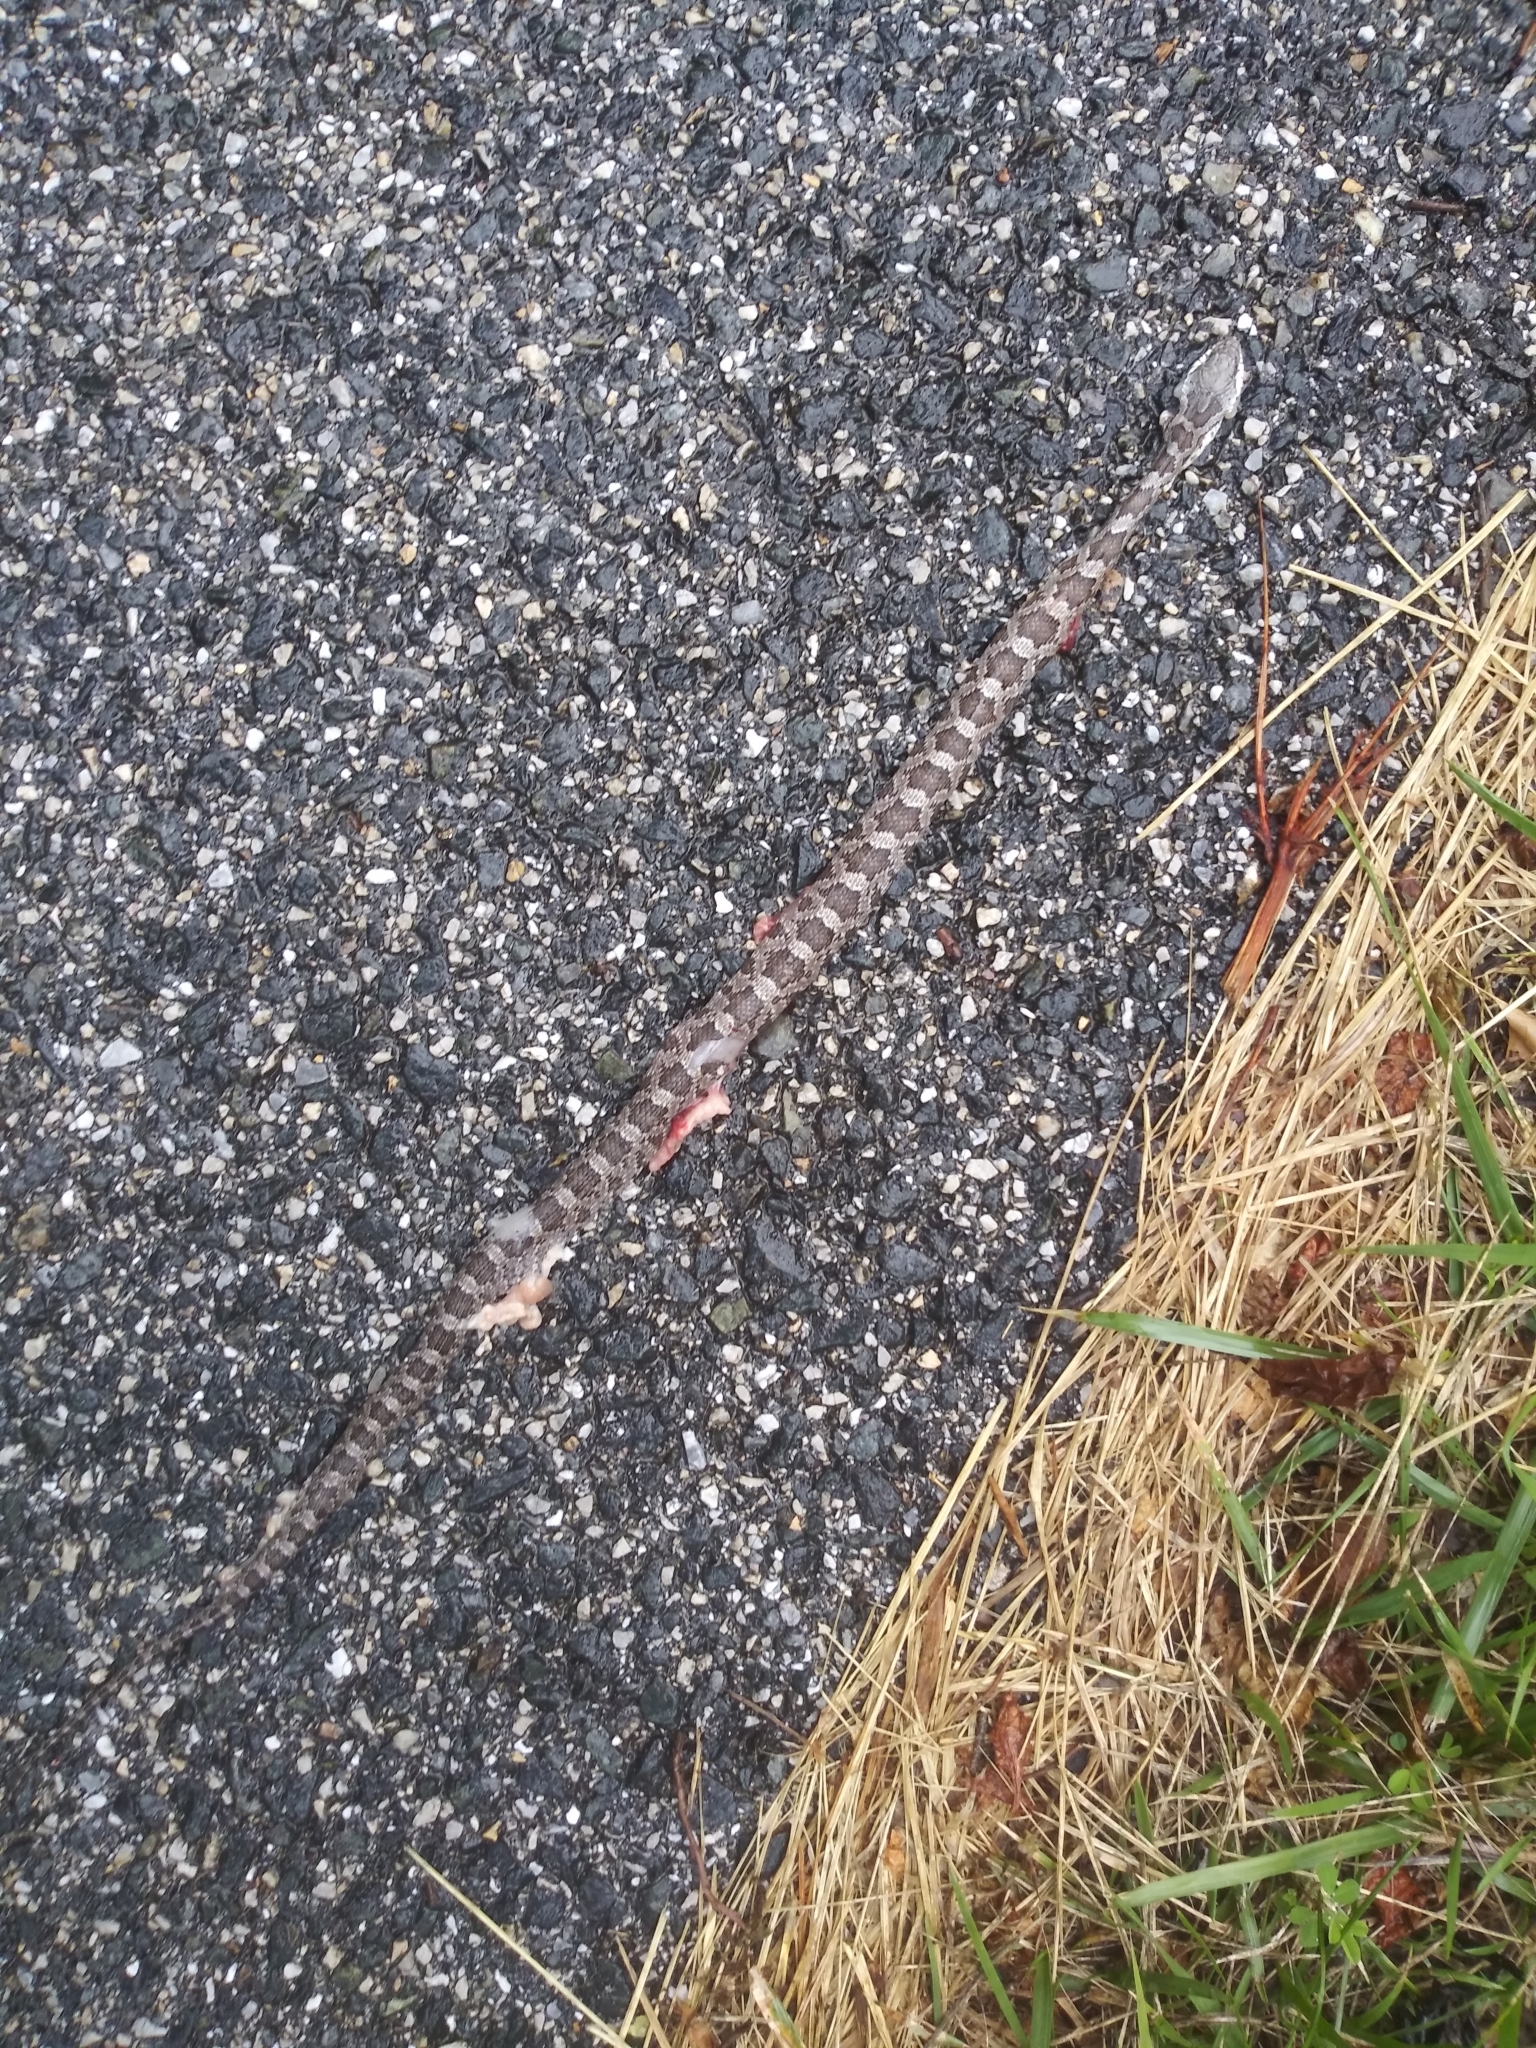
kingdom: Animalia
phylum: Chordata
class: Squamata
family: Colubridae
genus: Pantherophis
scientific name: Pantherophis alleghaniensis
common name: Eastern rat snake
